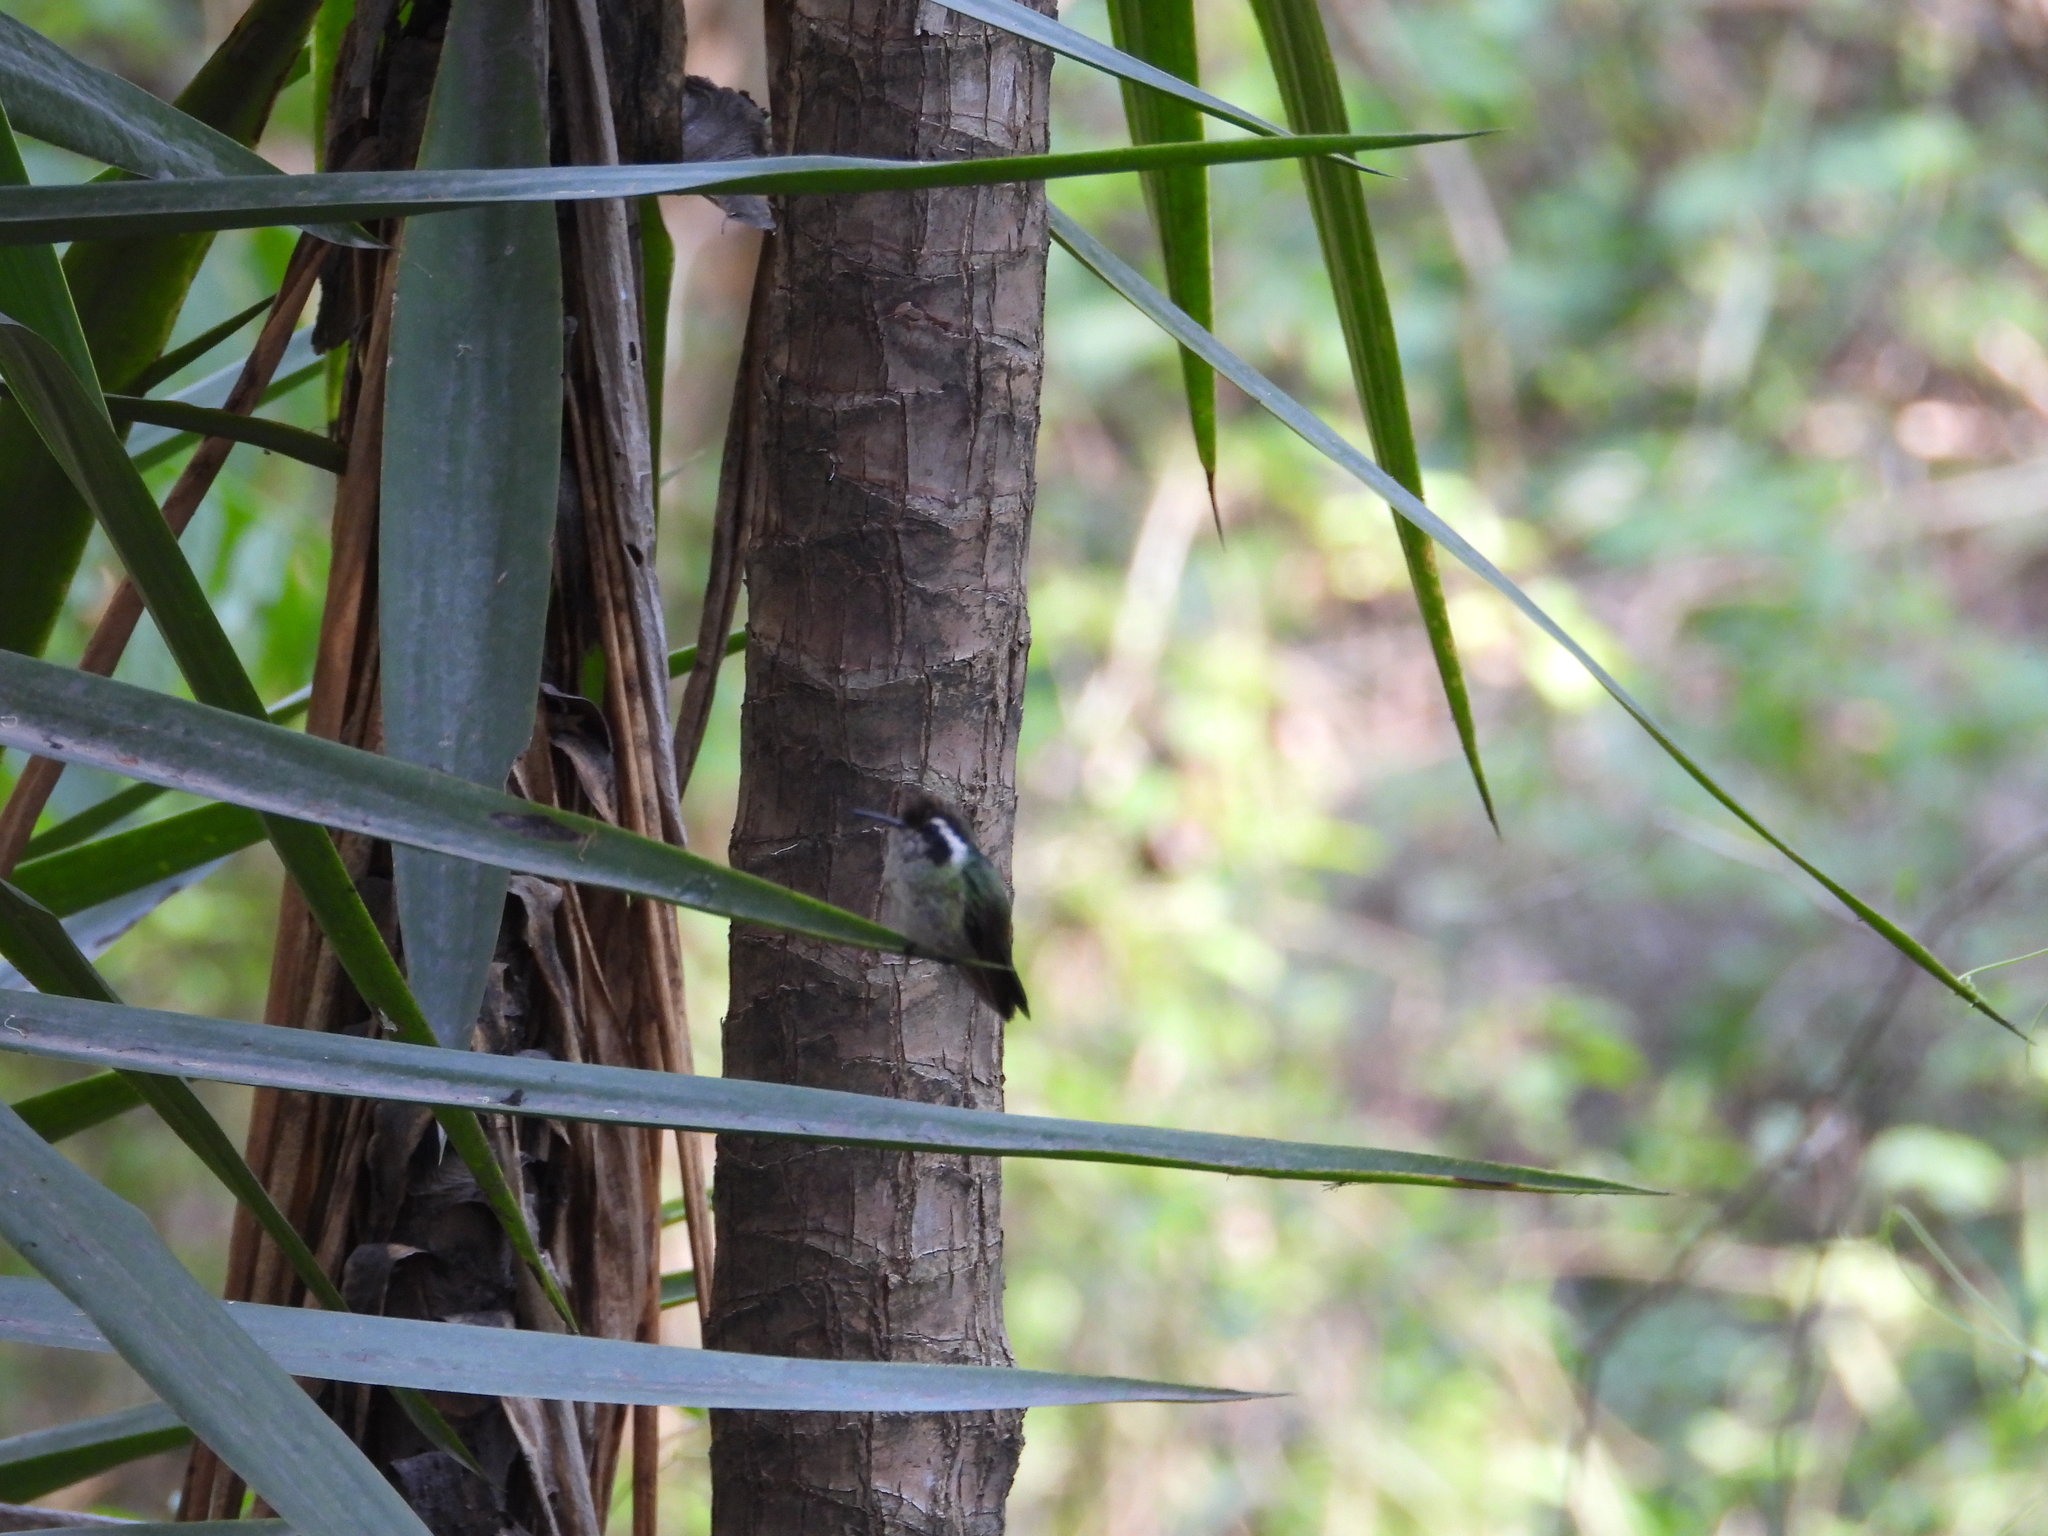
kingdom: Animalia
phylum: Chordata
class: Aves
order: Apodiformes
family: Trochilidae
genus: Basilinna
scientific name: Basilinna leucotis
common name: White-eared hummingbird
